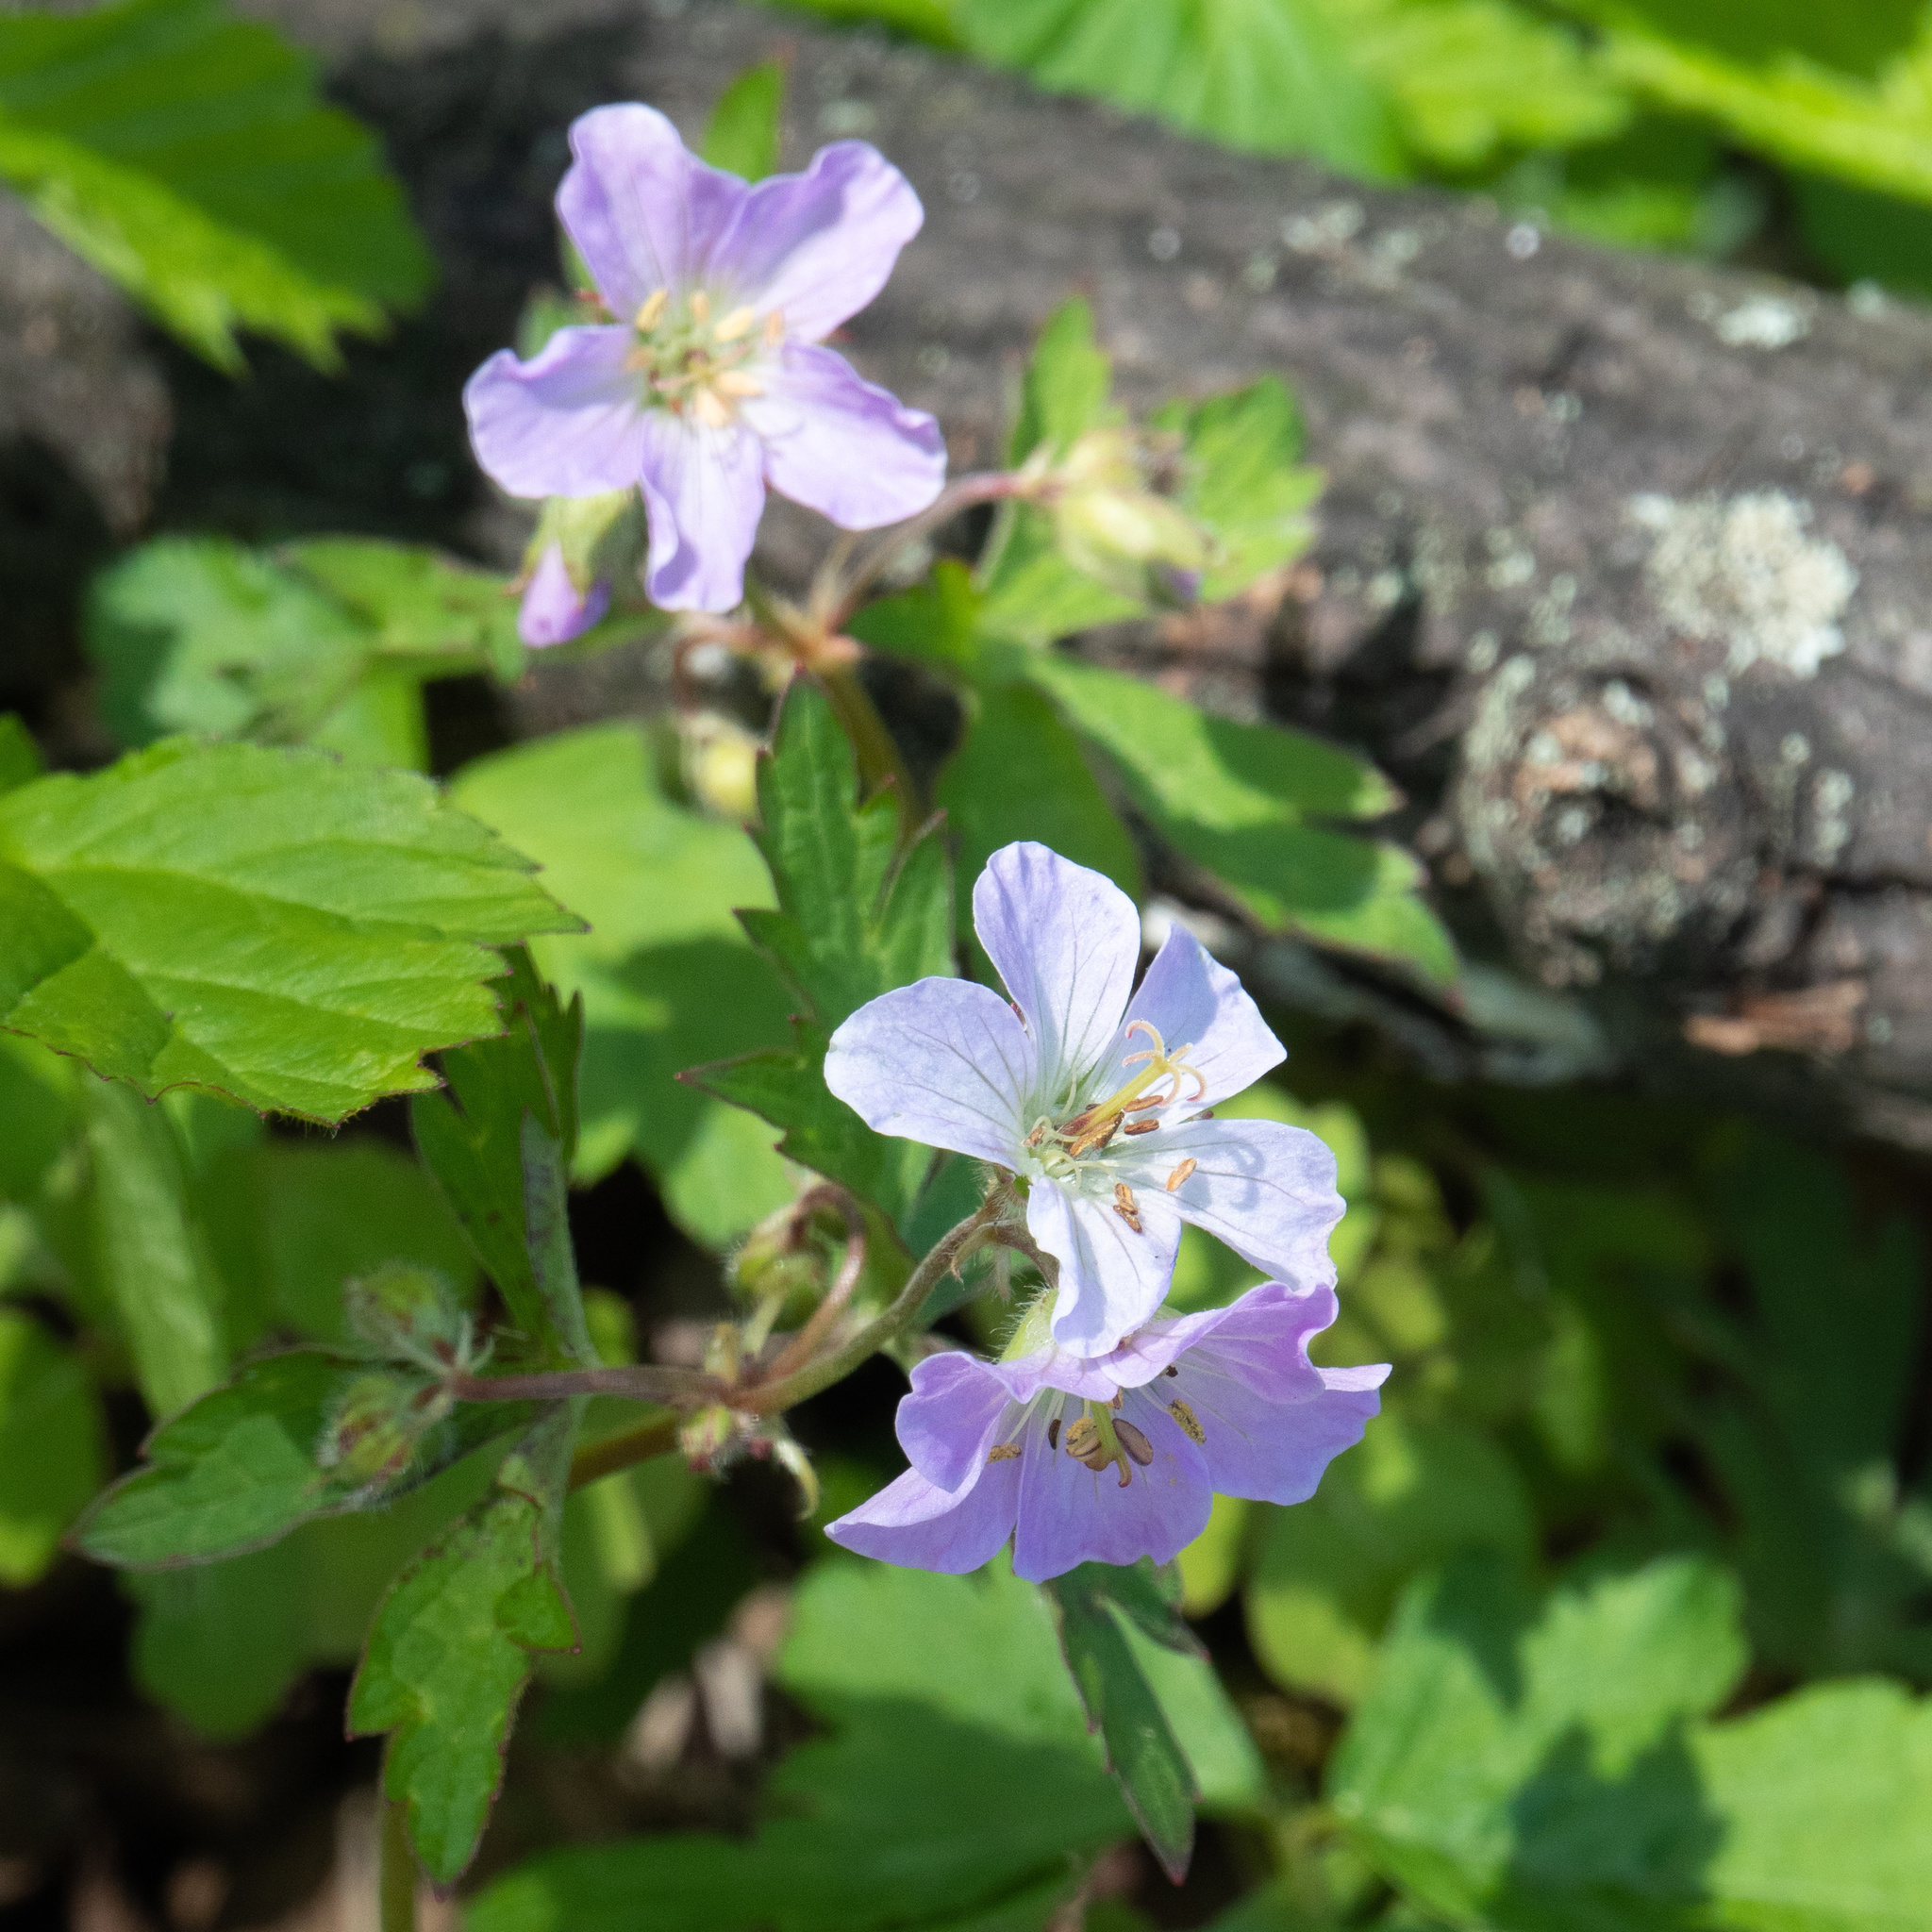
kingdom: Plantae
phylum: Tracheophyta
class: Magnoliopsida
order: Geraniales
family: Geraniaceae
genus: Geranium
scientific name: Geranium maculatum
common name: Spotted geranium
